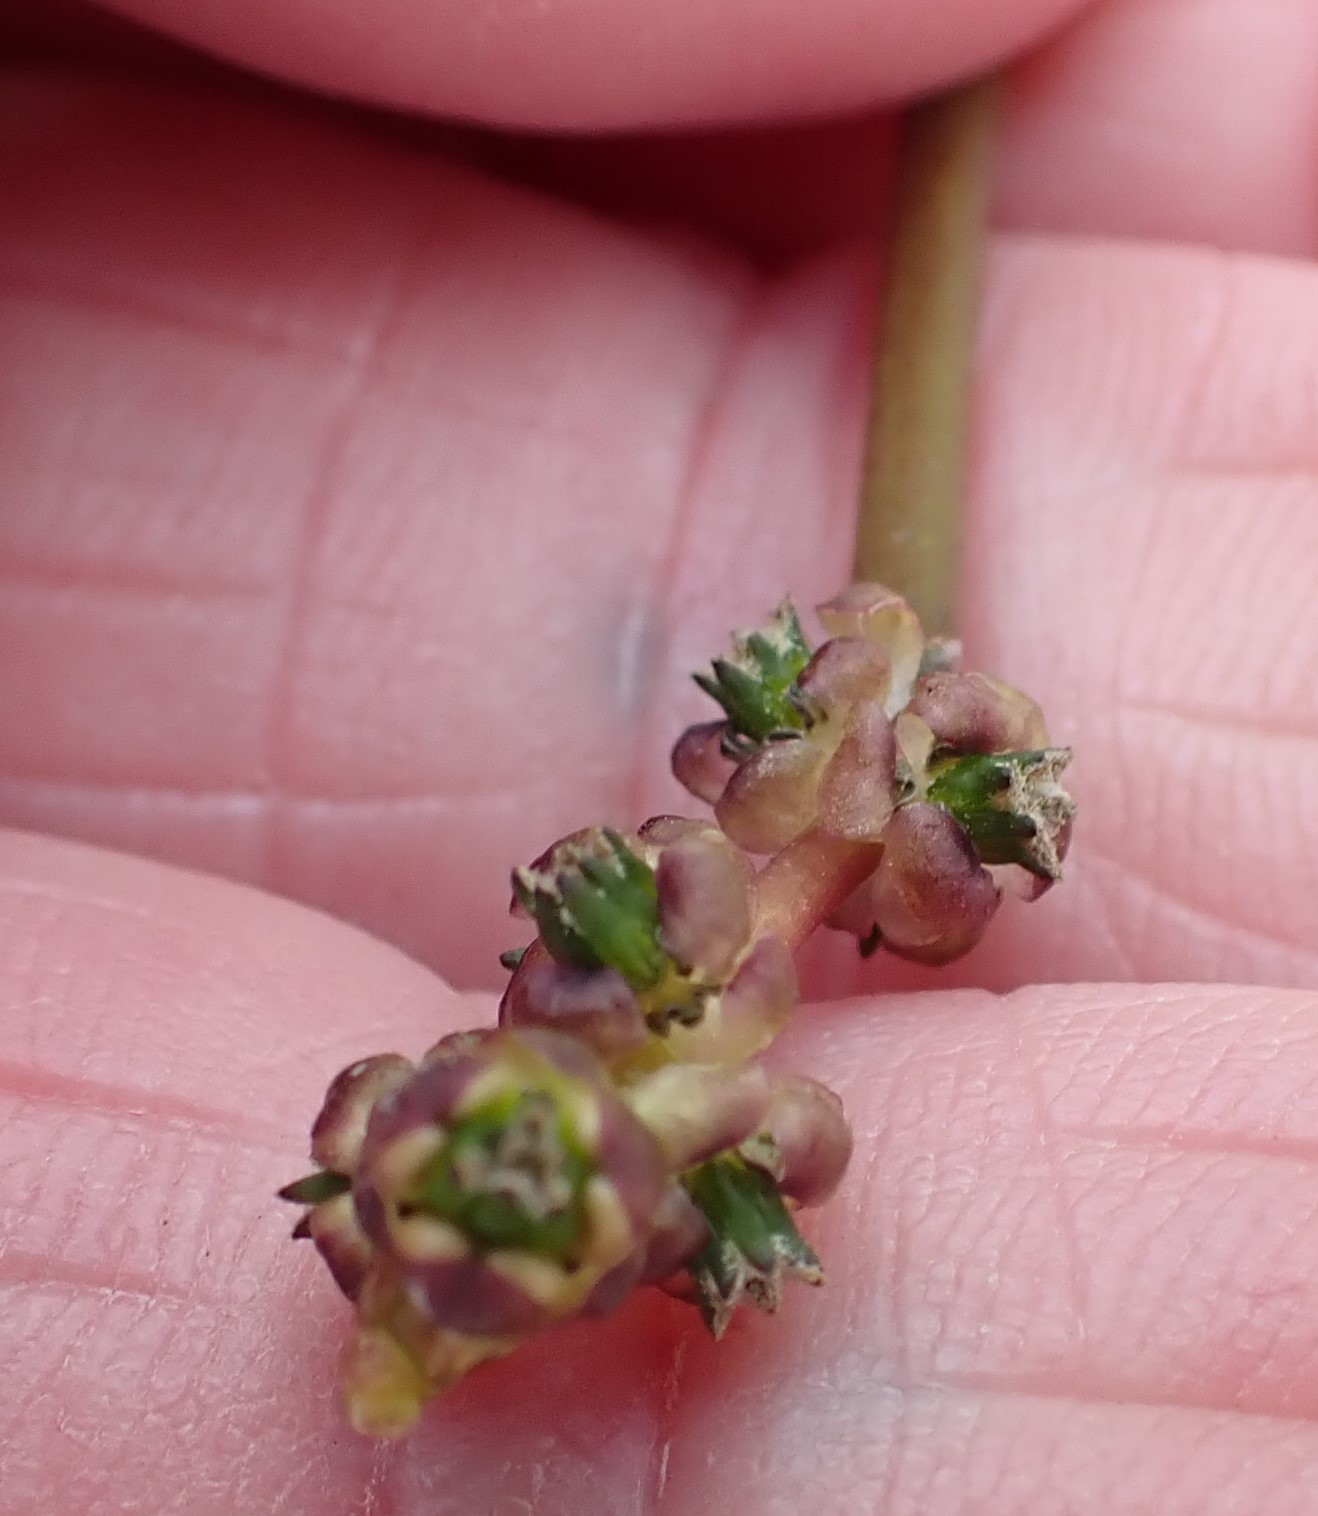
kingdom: Plantae
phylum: Tracheophyta
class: Liliopsida
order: Alismatales
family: Juncaginaceae
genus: Cycnogeton
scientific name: Cycnogeton alcockiae
